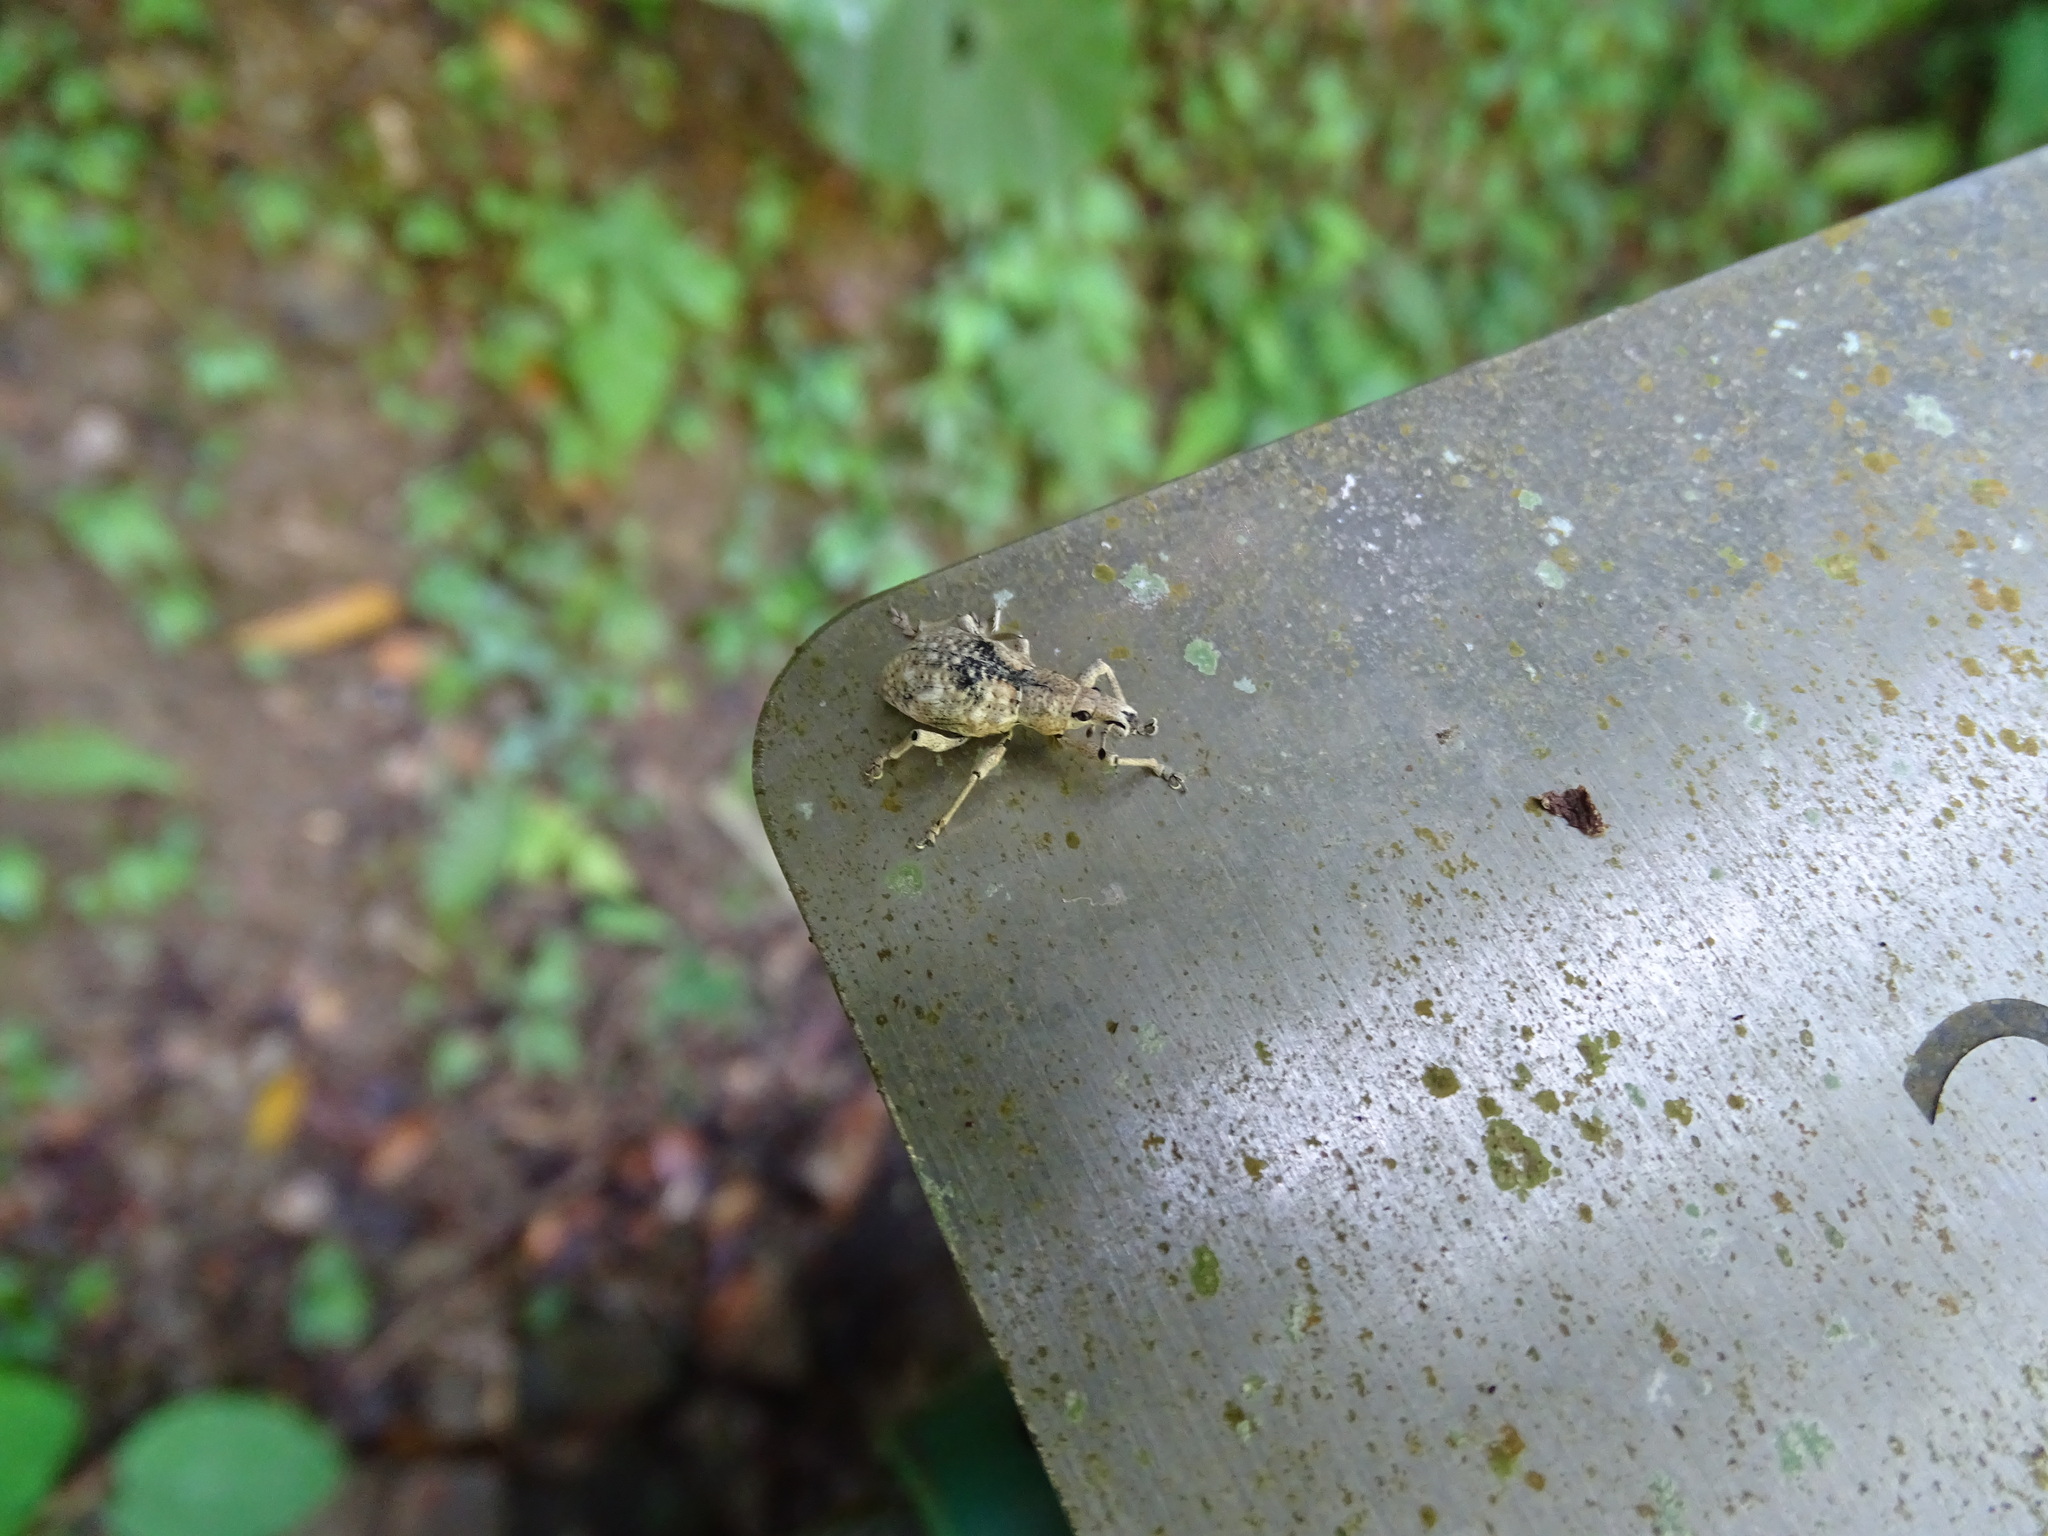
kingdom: Animalia
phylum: Arthropoda
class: Insecta
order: Coleoptera
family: Curculionidae
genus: Dermatoxenus
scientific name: Dermatoxenus caesicollis
